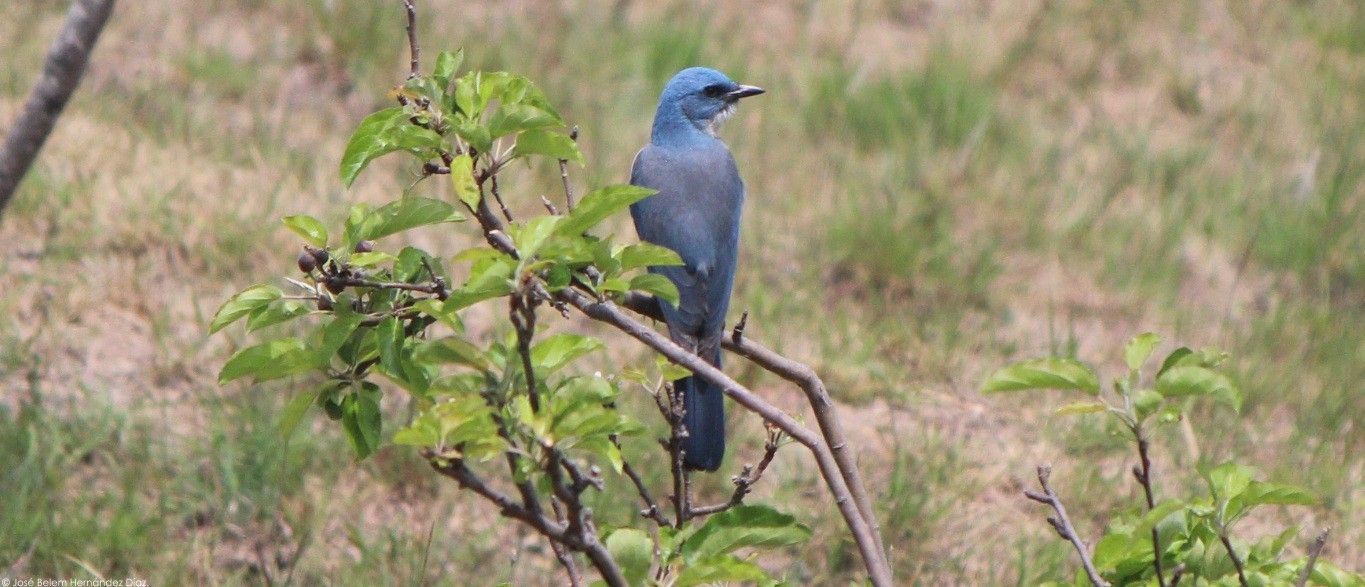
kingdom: Animalia
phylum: Chordata
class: Aves
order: Passeriformes
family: Corvidae
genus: Aphelocoma
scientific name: Aphelocoma wollweberi
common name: Mexican jay
